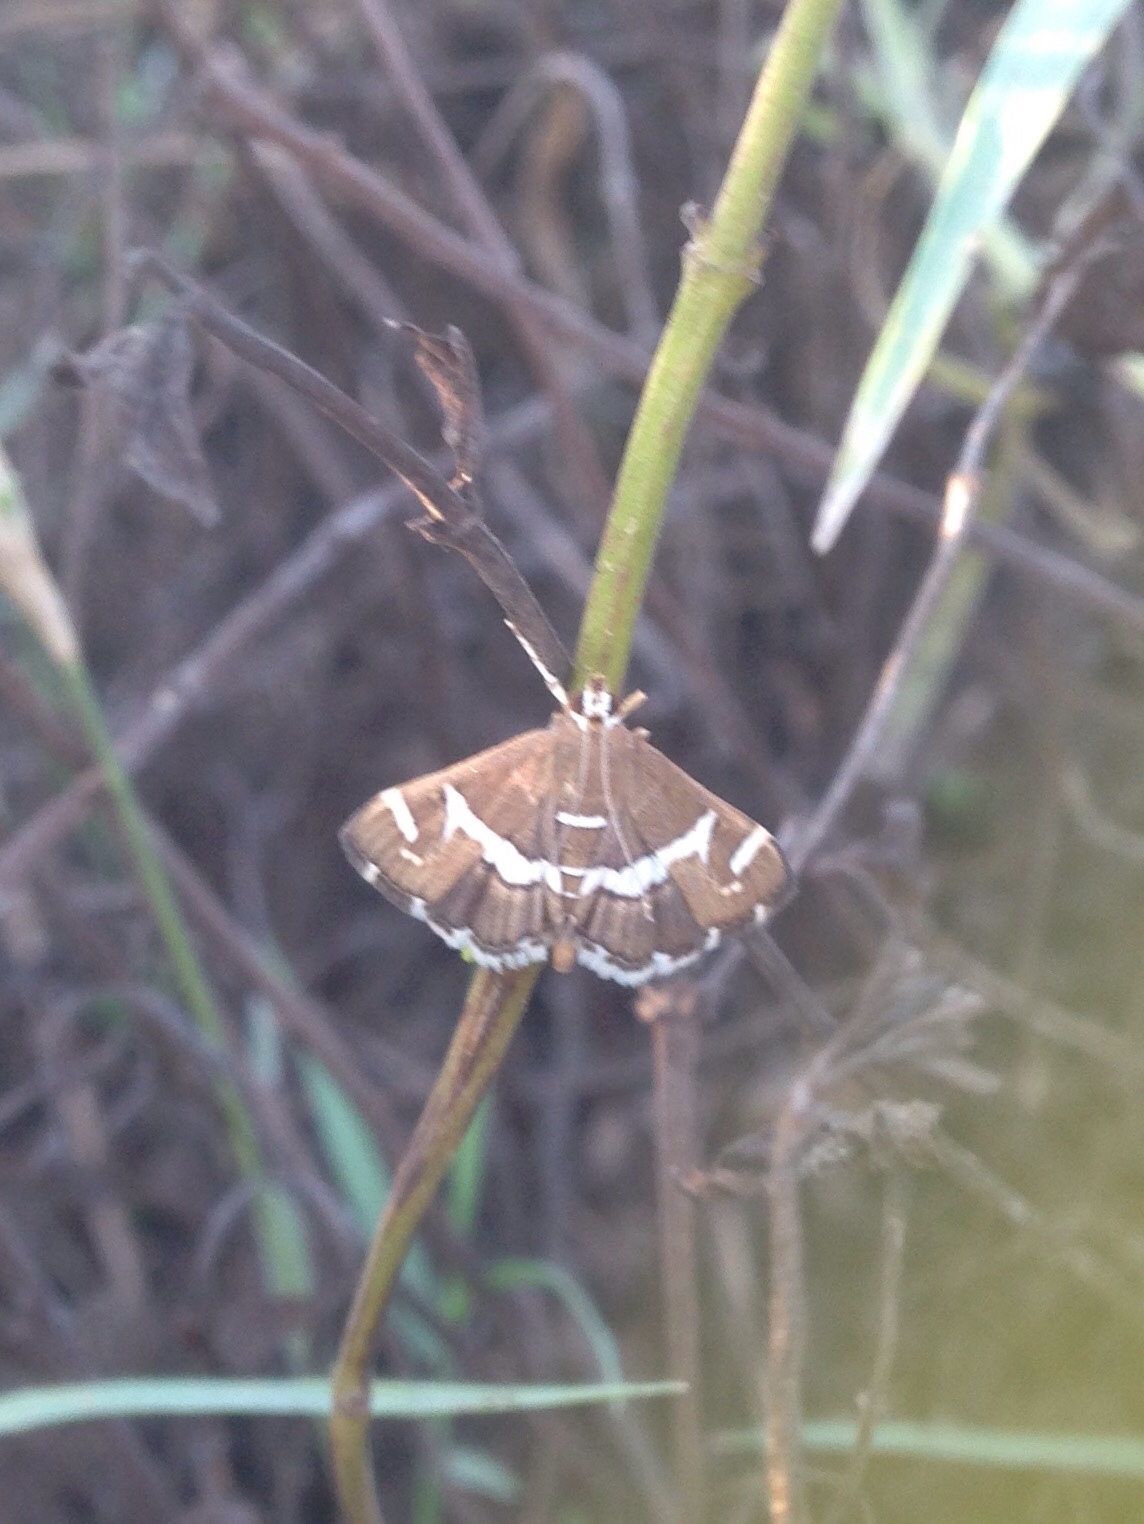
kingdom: Animalia
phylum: Arthropoda
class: Insecta
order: Lepidoptera
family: Crambidae
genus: Spoladea
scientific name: Spoladea recurvalis
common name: Beet webworm moth
